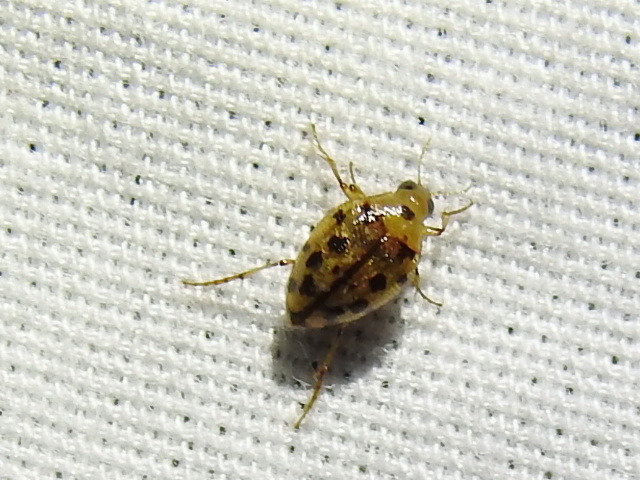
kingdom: Animalia
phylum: Arthropoda
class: Insecta
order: Coleoptera
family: Haliplidae
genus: Haliplus
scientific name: Haliplus
